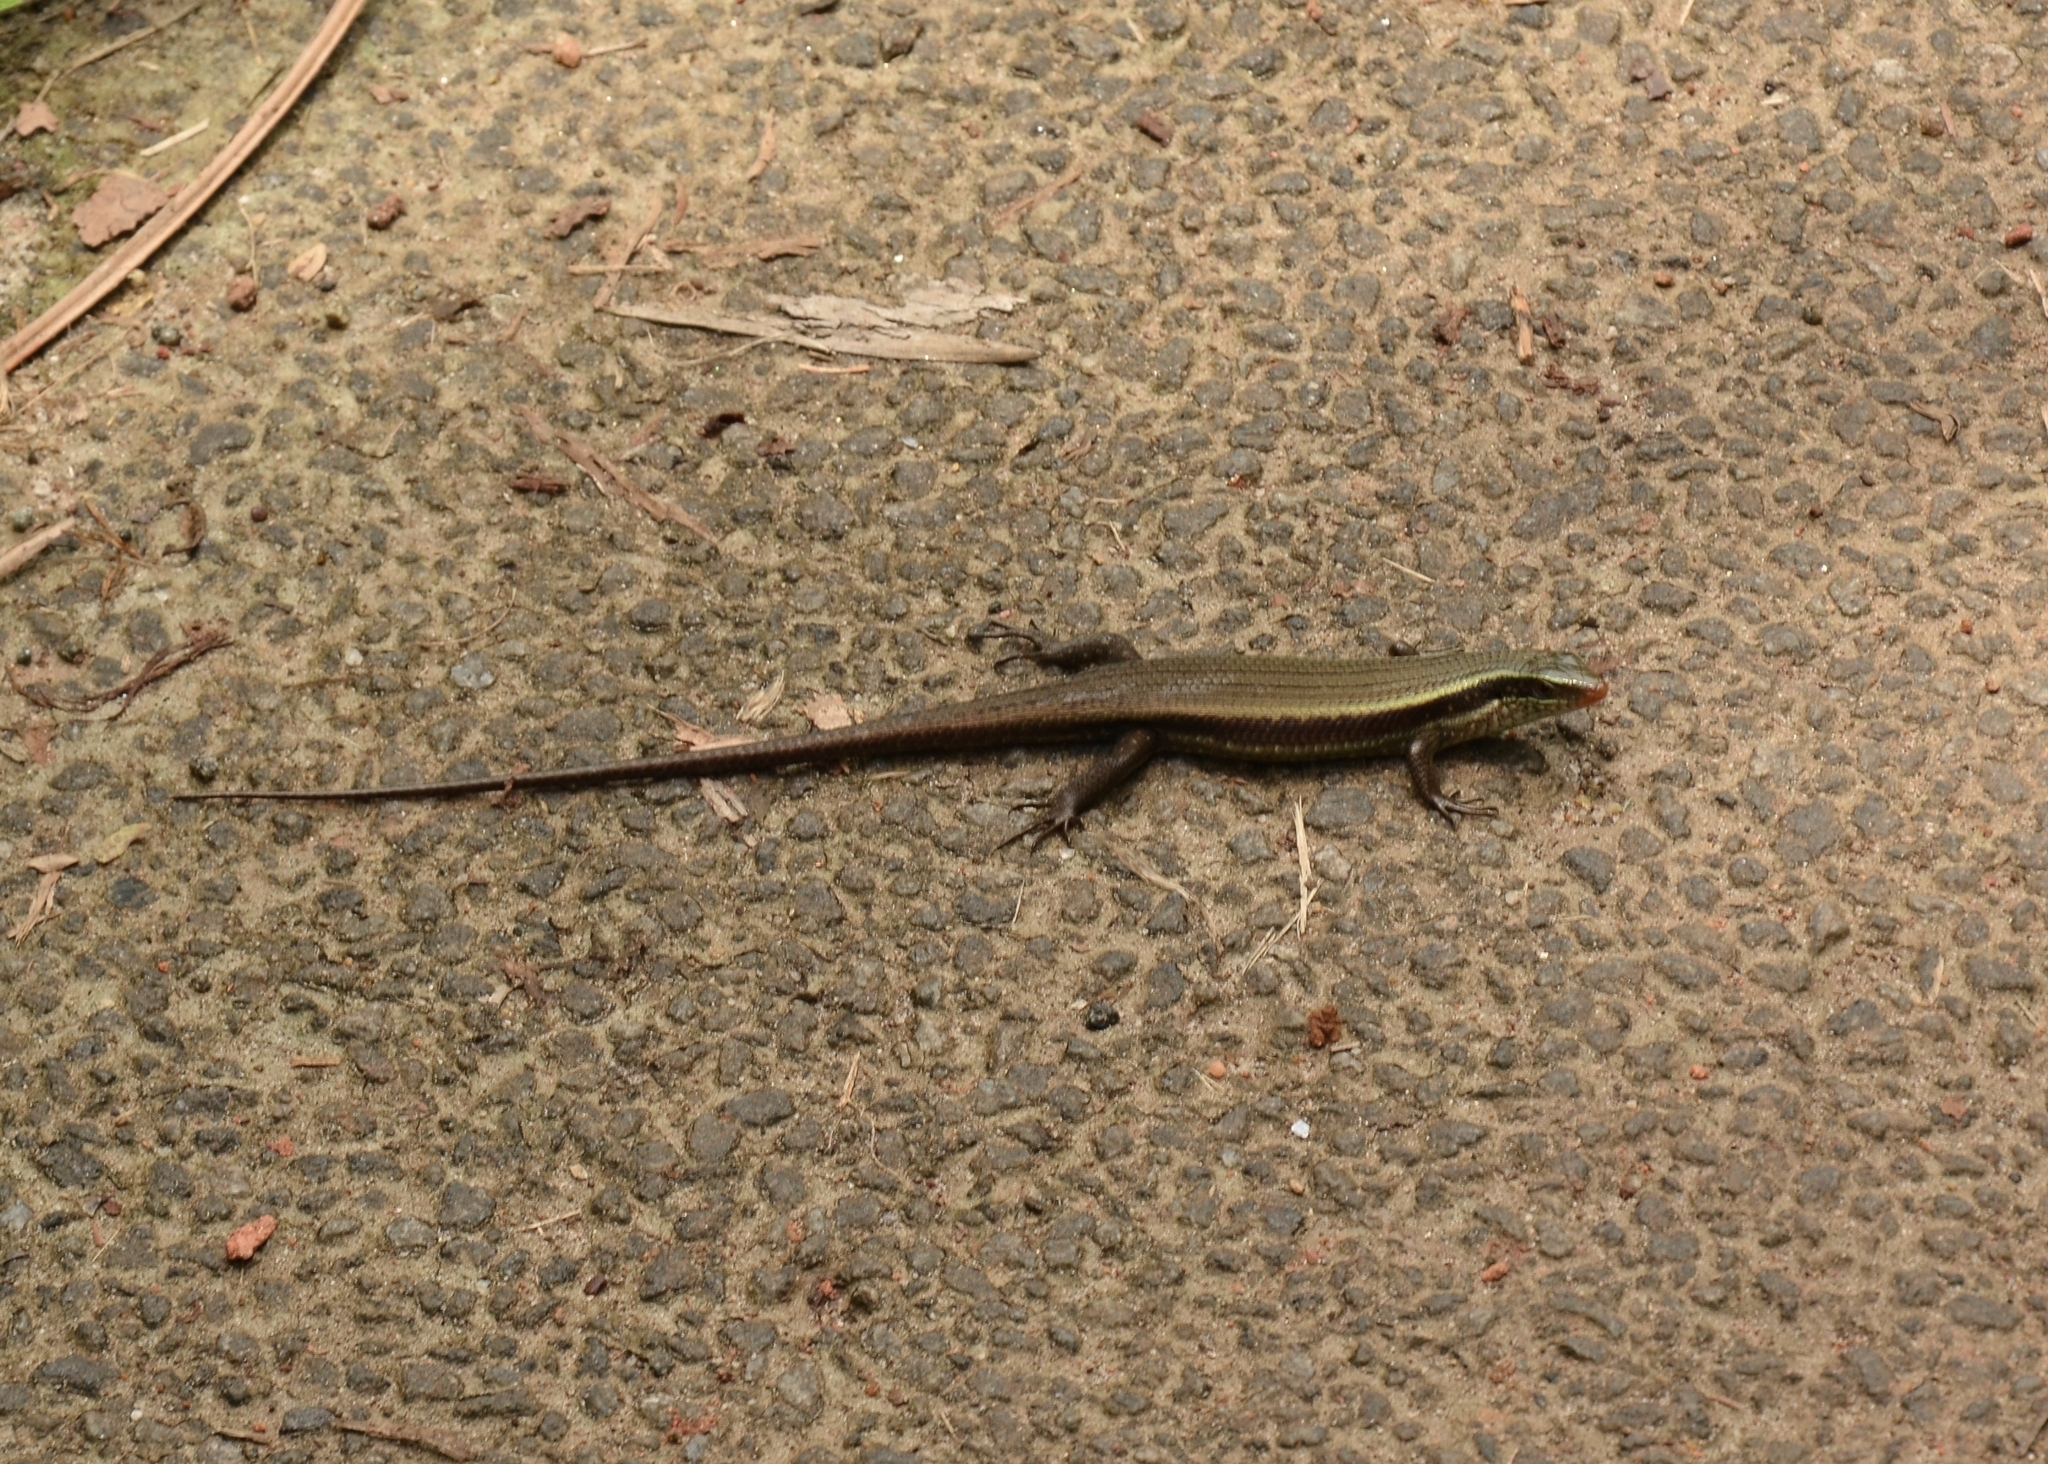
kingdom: Animalia
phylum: Chordata
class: Squamata
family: Scincidae
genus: Eutropis
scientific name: Eutropis carinata
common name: Keeled indian mabuya
